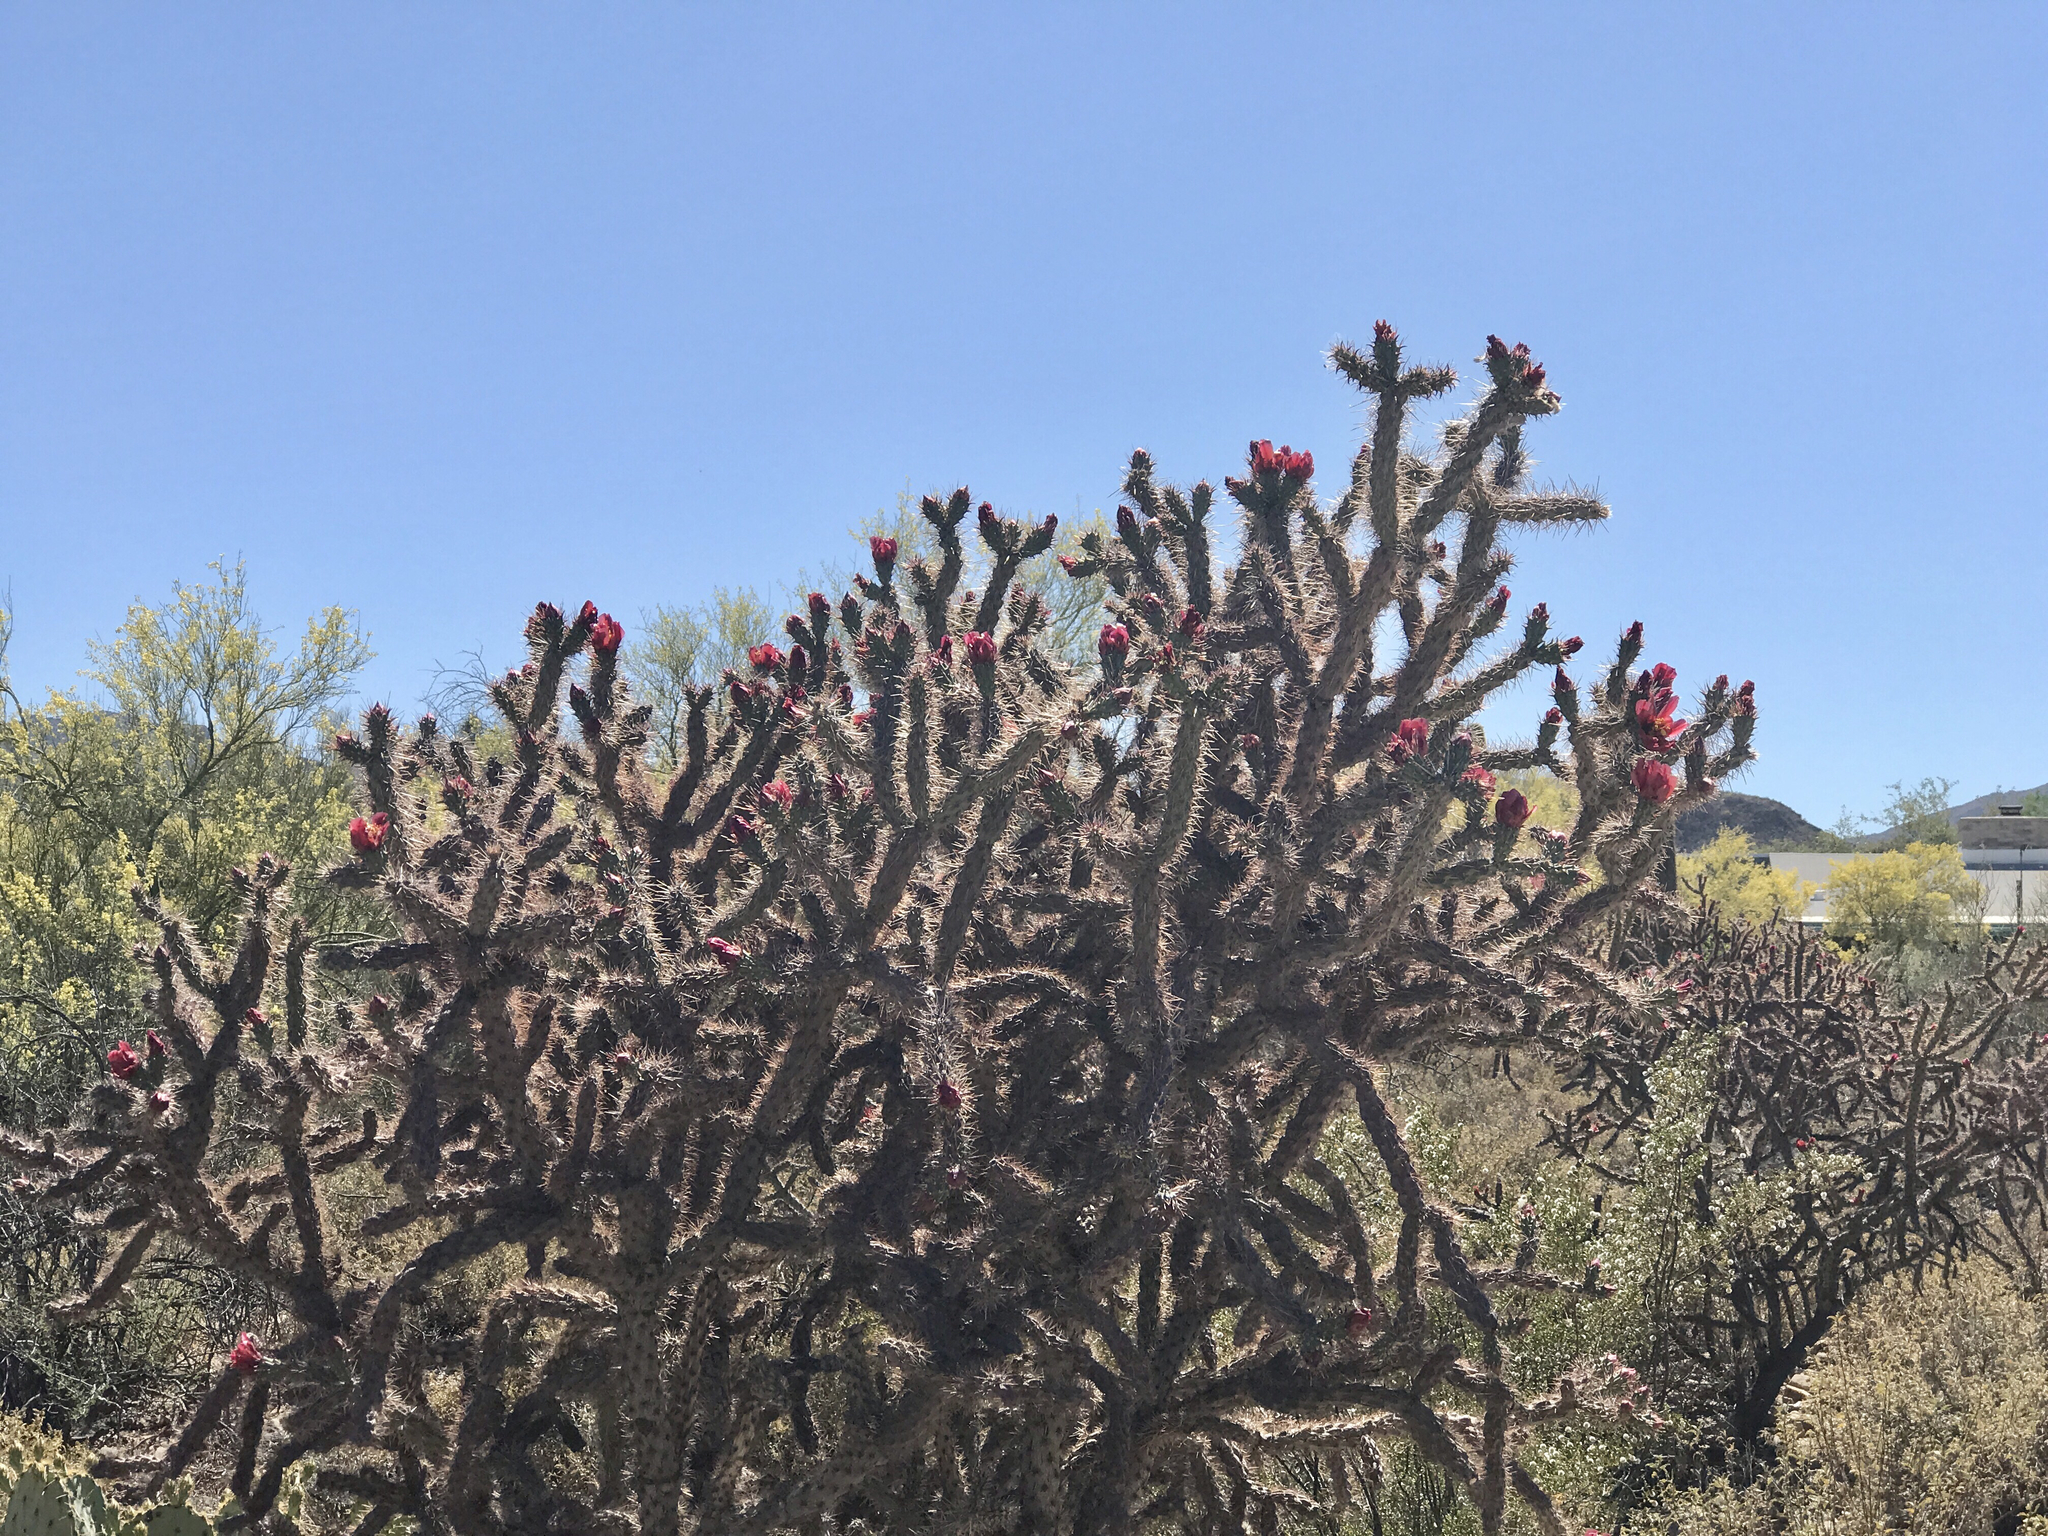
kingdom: Plantae
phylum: Tracheophyta
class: Magnoliopsida
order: Caryophyllales
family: Cactaceae
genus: Cylindropuntia
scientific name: Cylindropuntia thurberi
